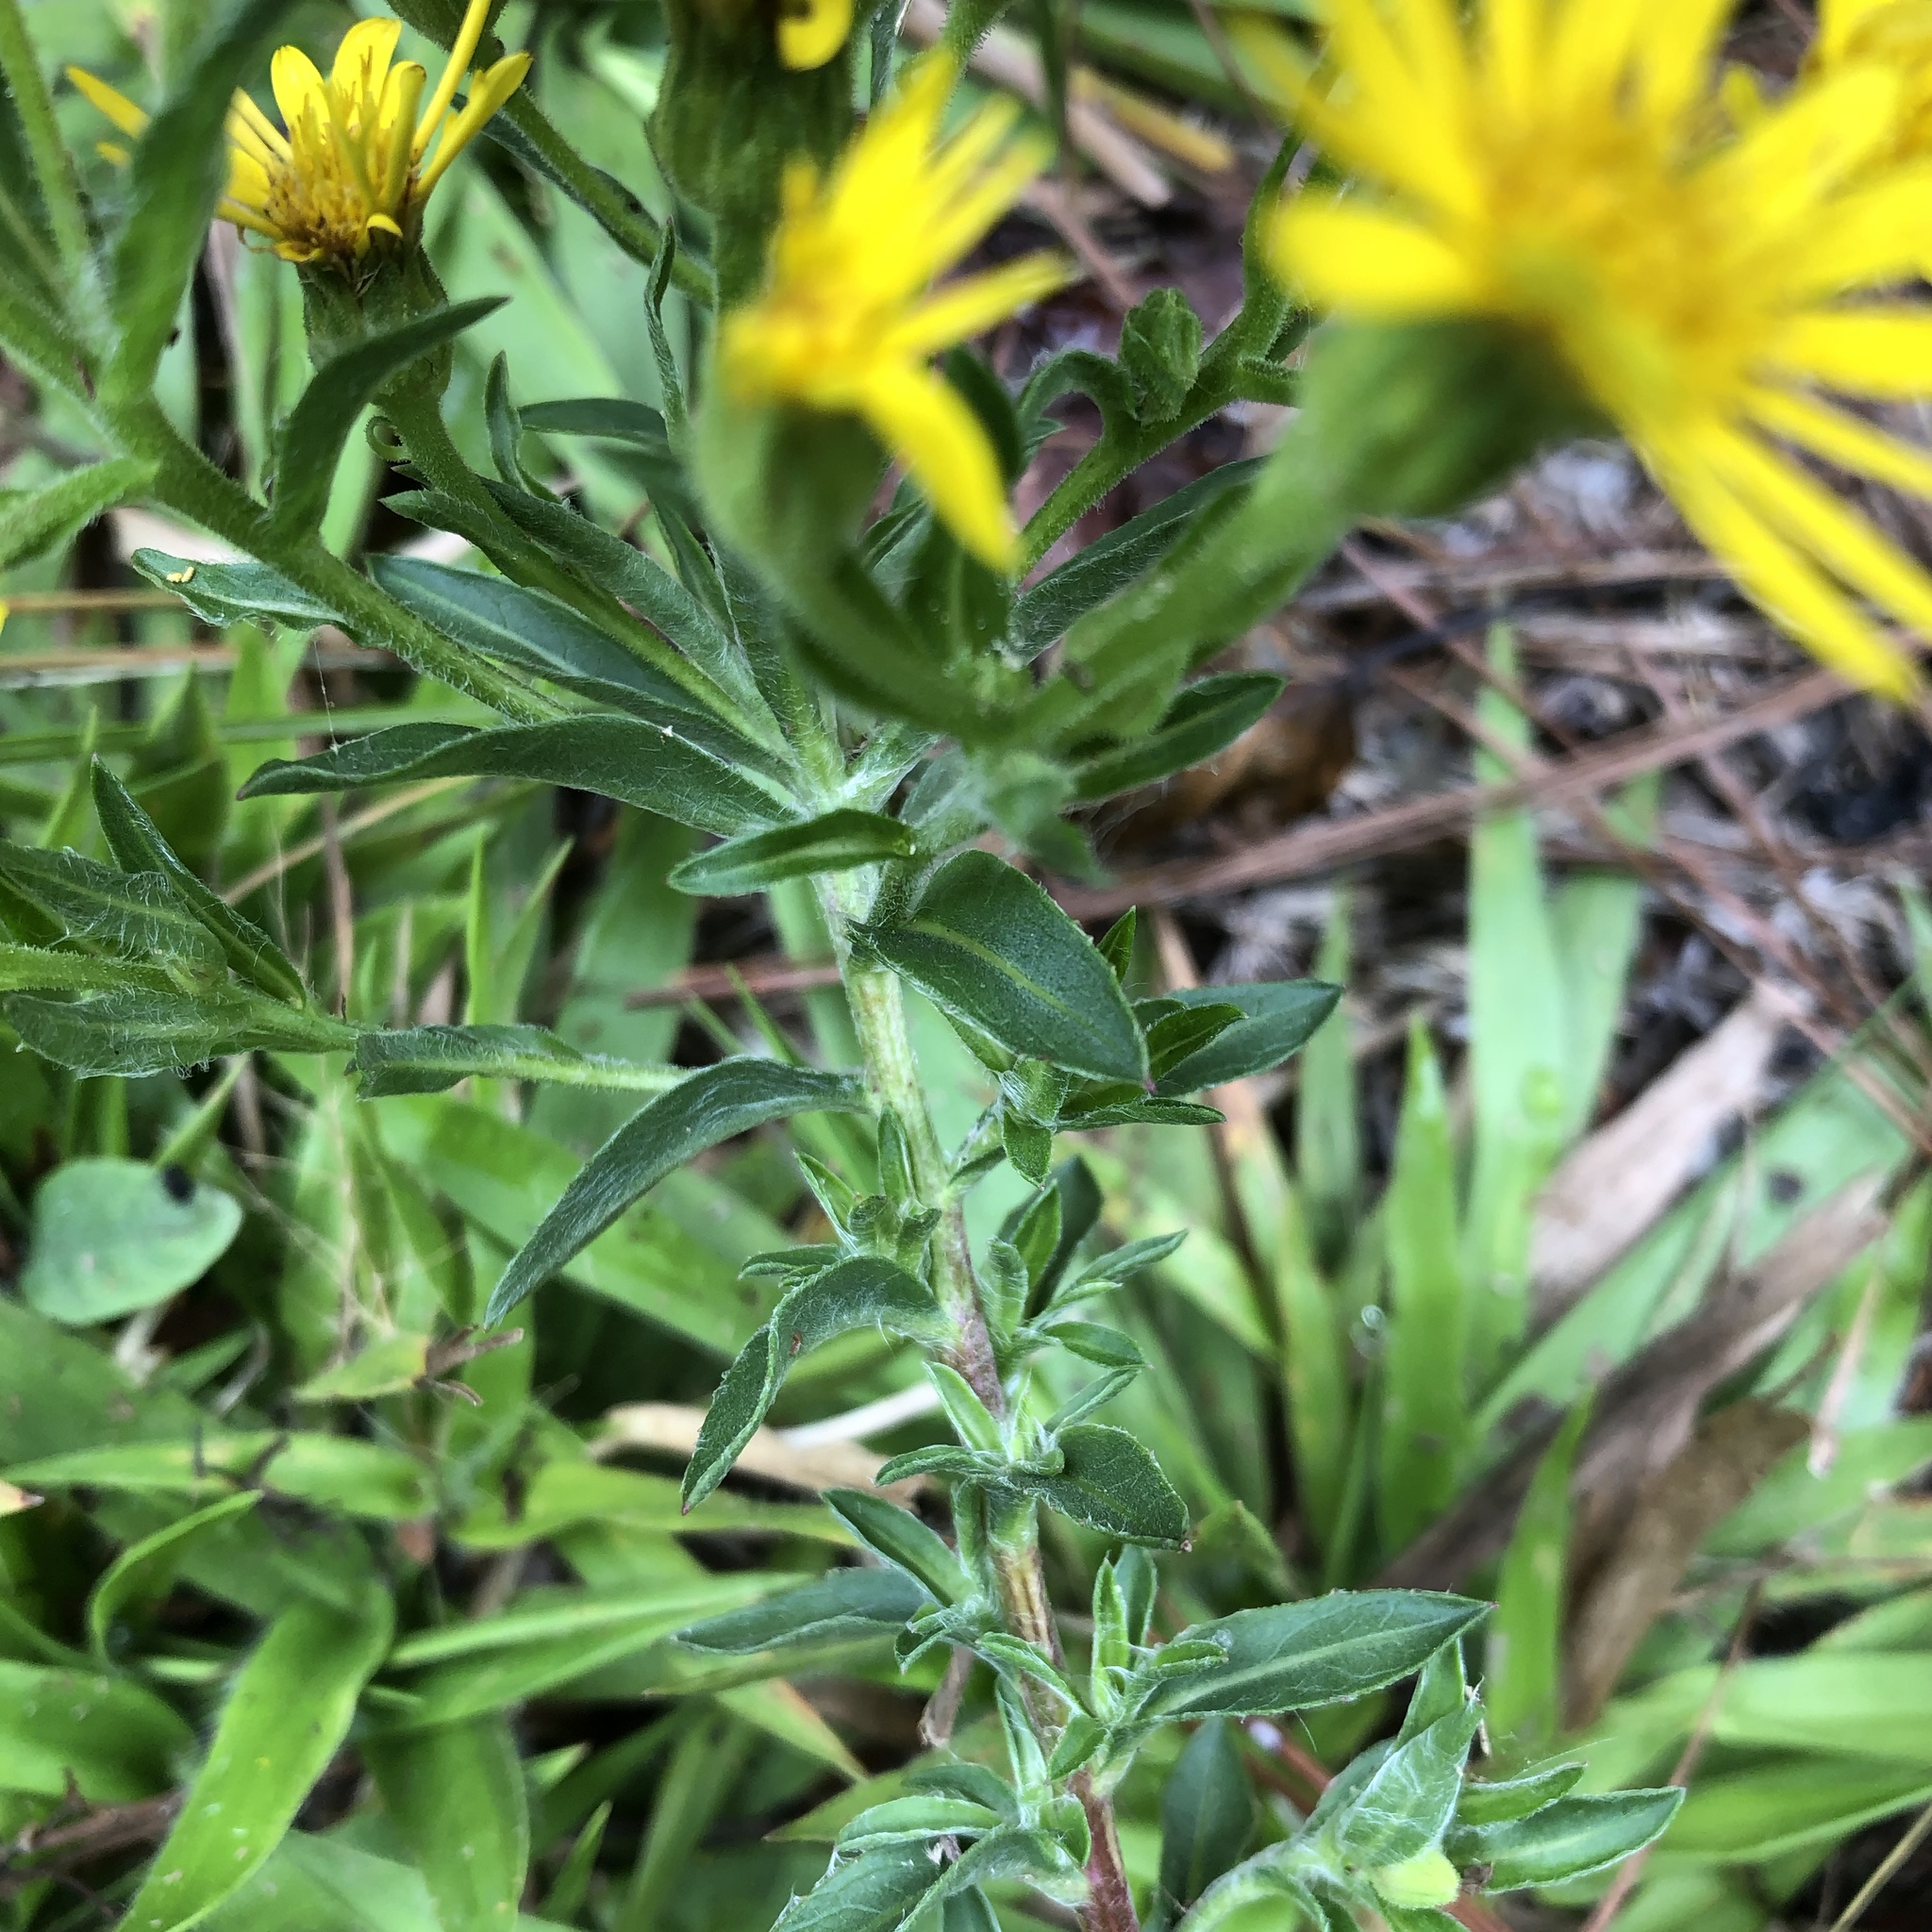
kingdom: Plantae
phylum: Tracheophyta
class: Magnoliopsida
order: Asterales
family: Asteraceae
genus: Chrysopsis
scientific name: Chrysopsis mariana
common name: Maryland golden-aster
